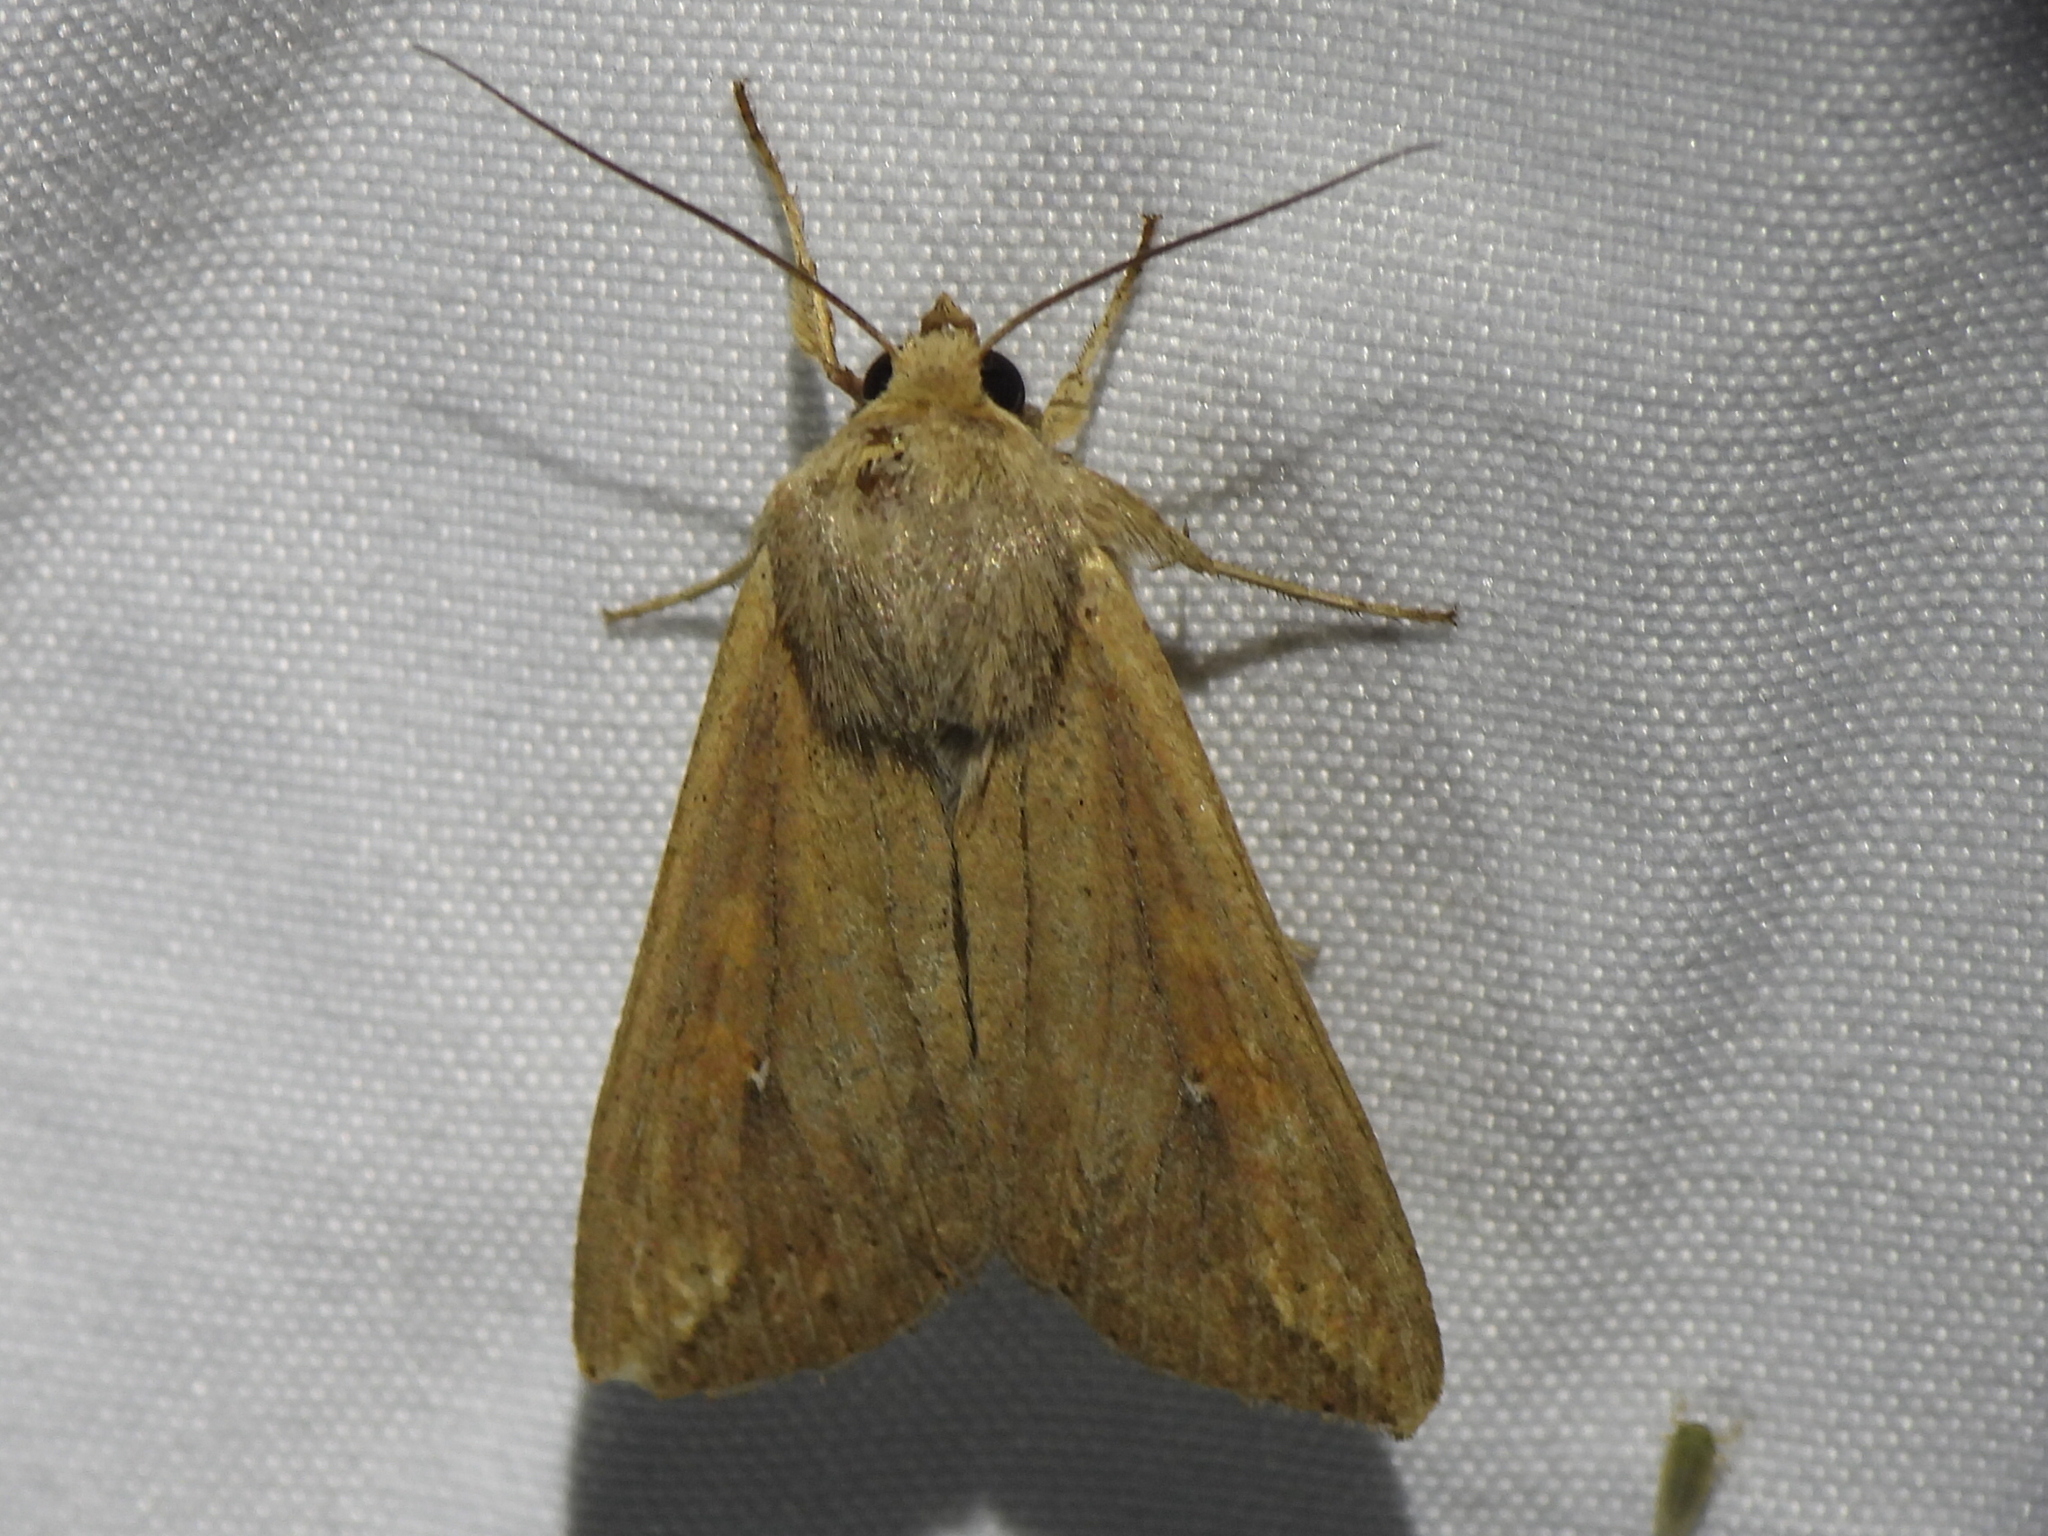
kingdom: Animalia
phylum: Arthropoda
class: Insecta
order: Lepidoptera
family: Noctuidae
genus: Mythimna
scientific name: Mythimna unipuncta
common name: White-speck
